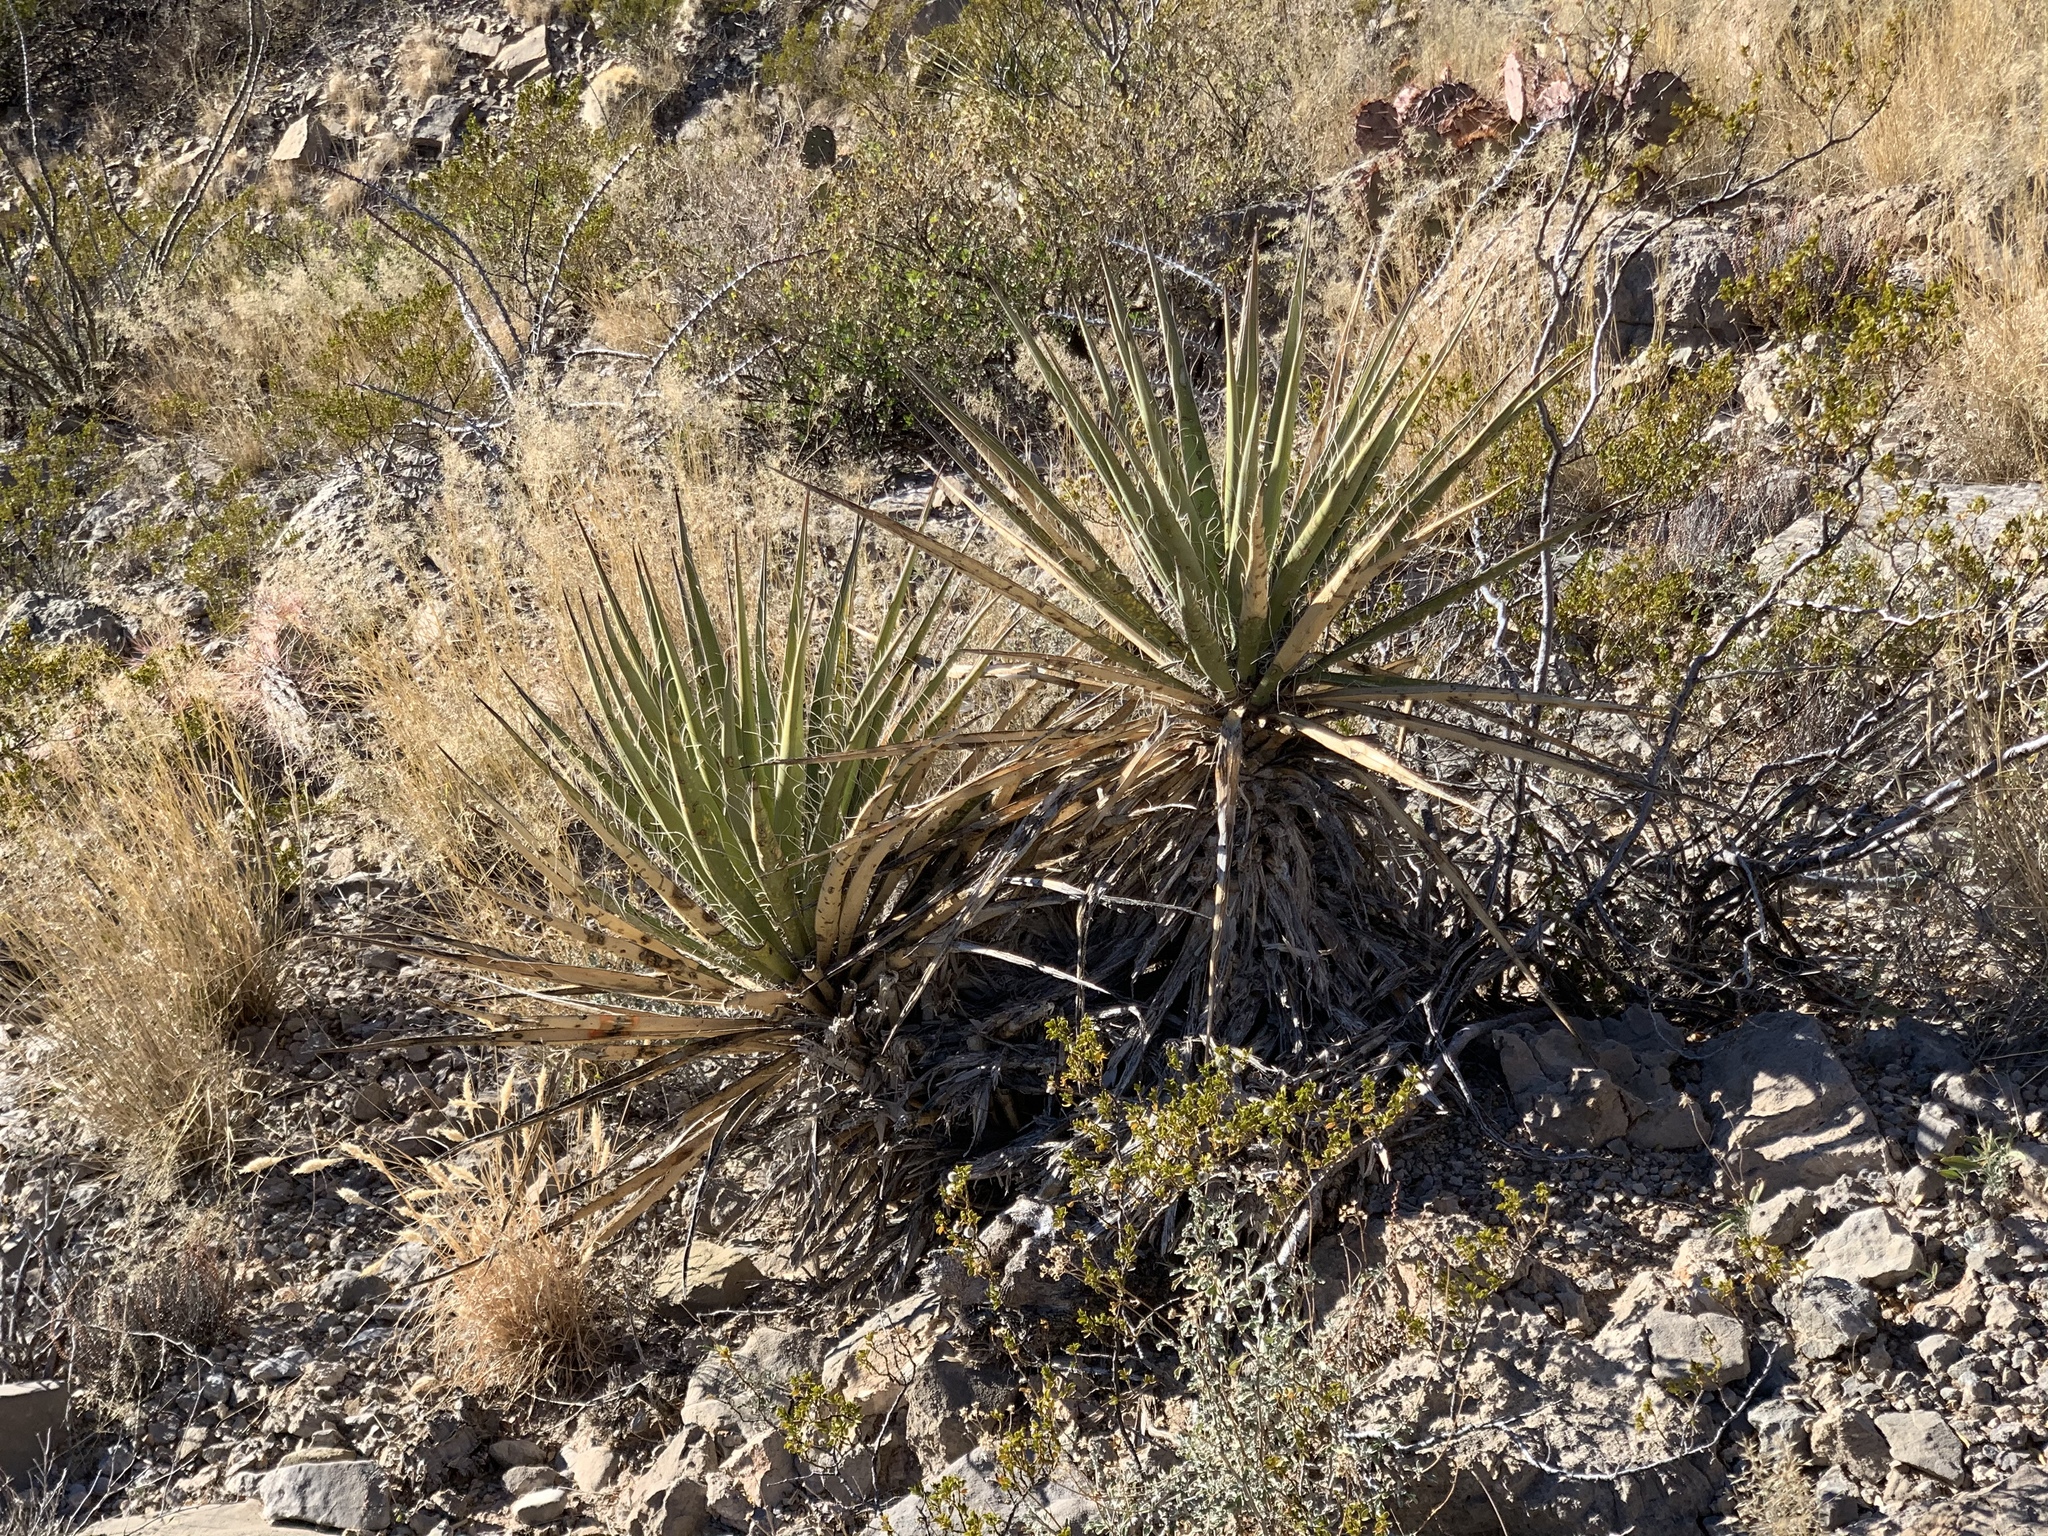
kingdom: Plantae
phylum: Tracheophyta
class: Liliopsida
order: Asparagales
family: Asparagaceae
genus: Yucca
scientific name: Yucca treculiana
